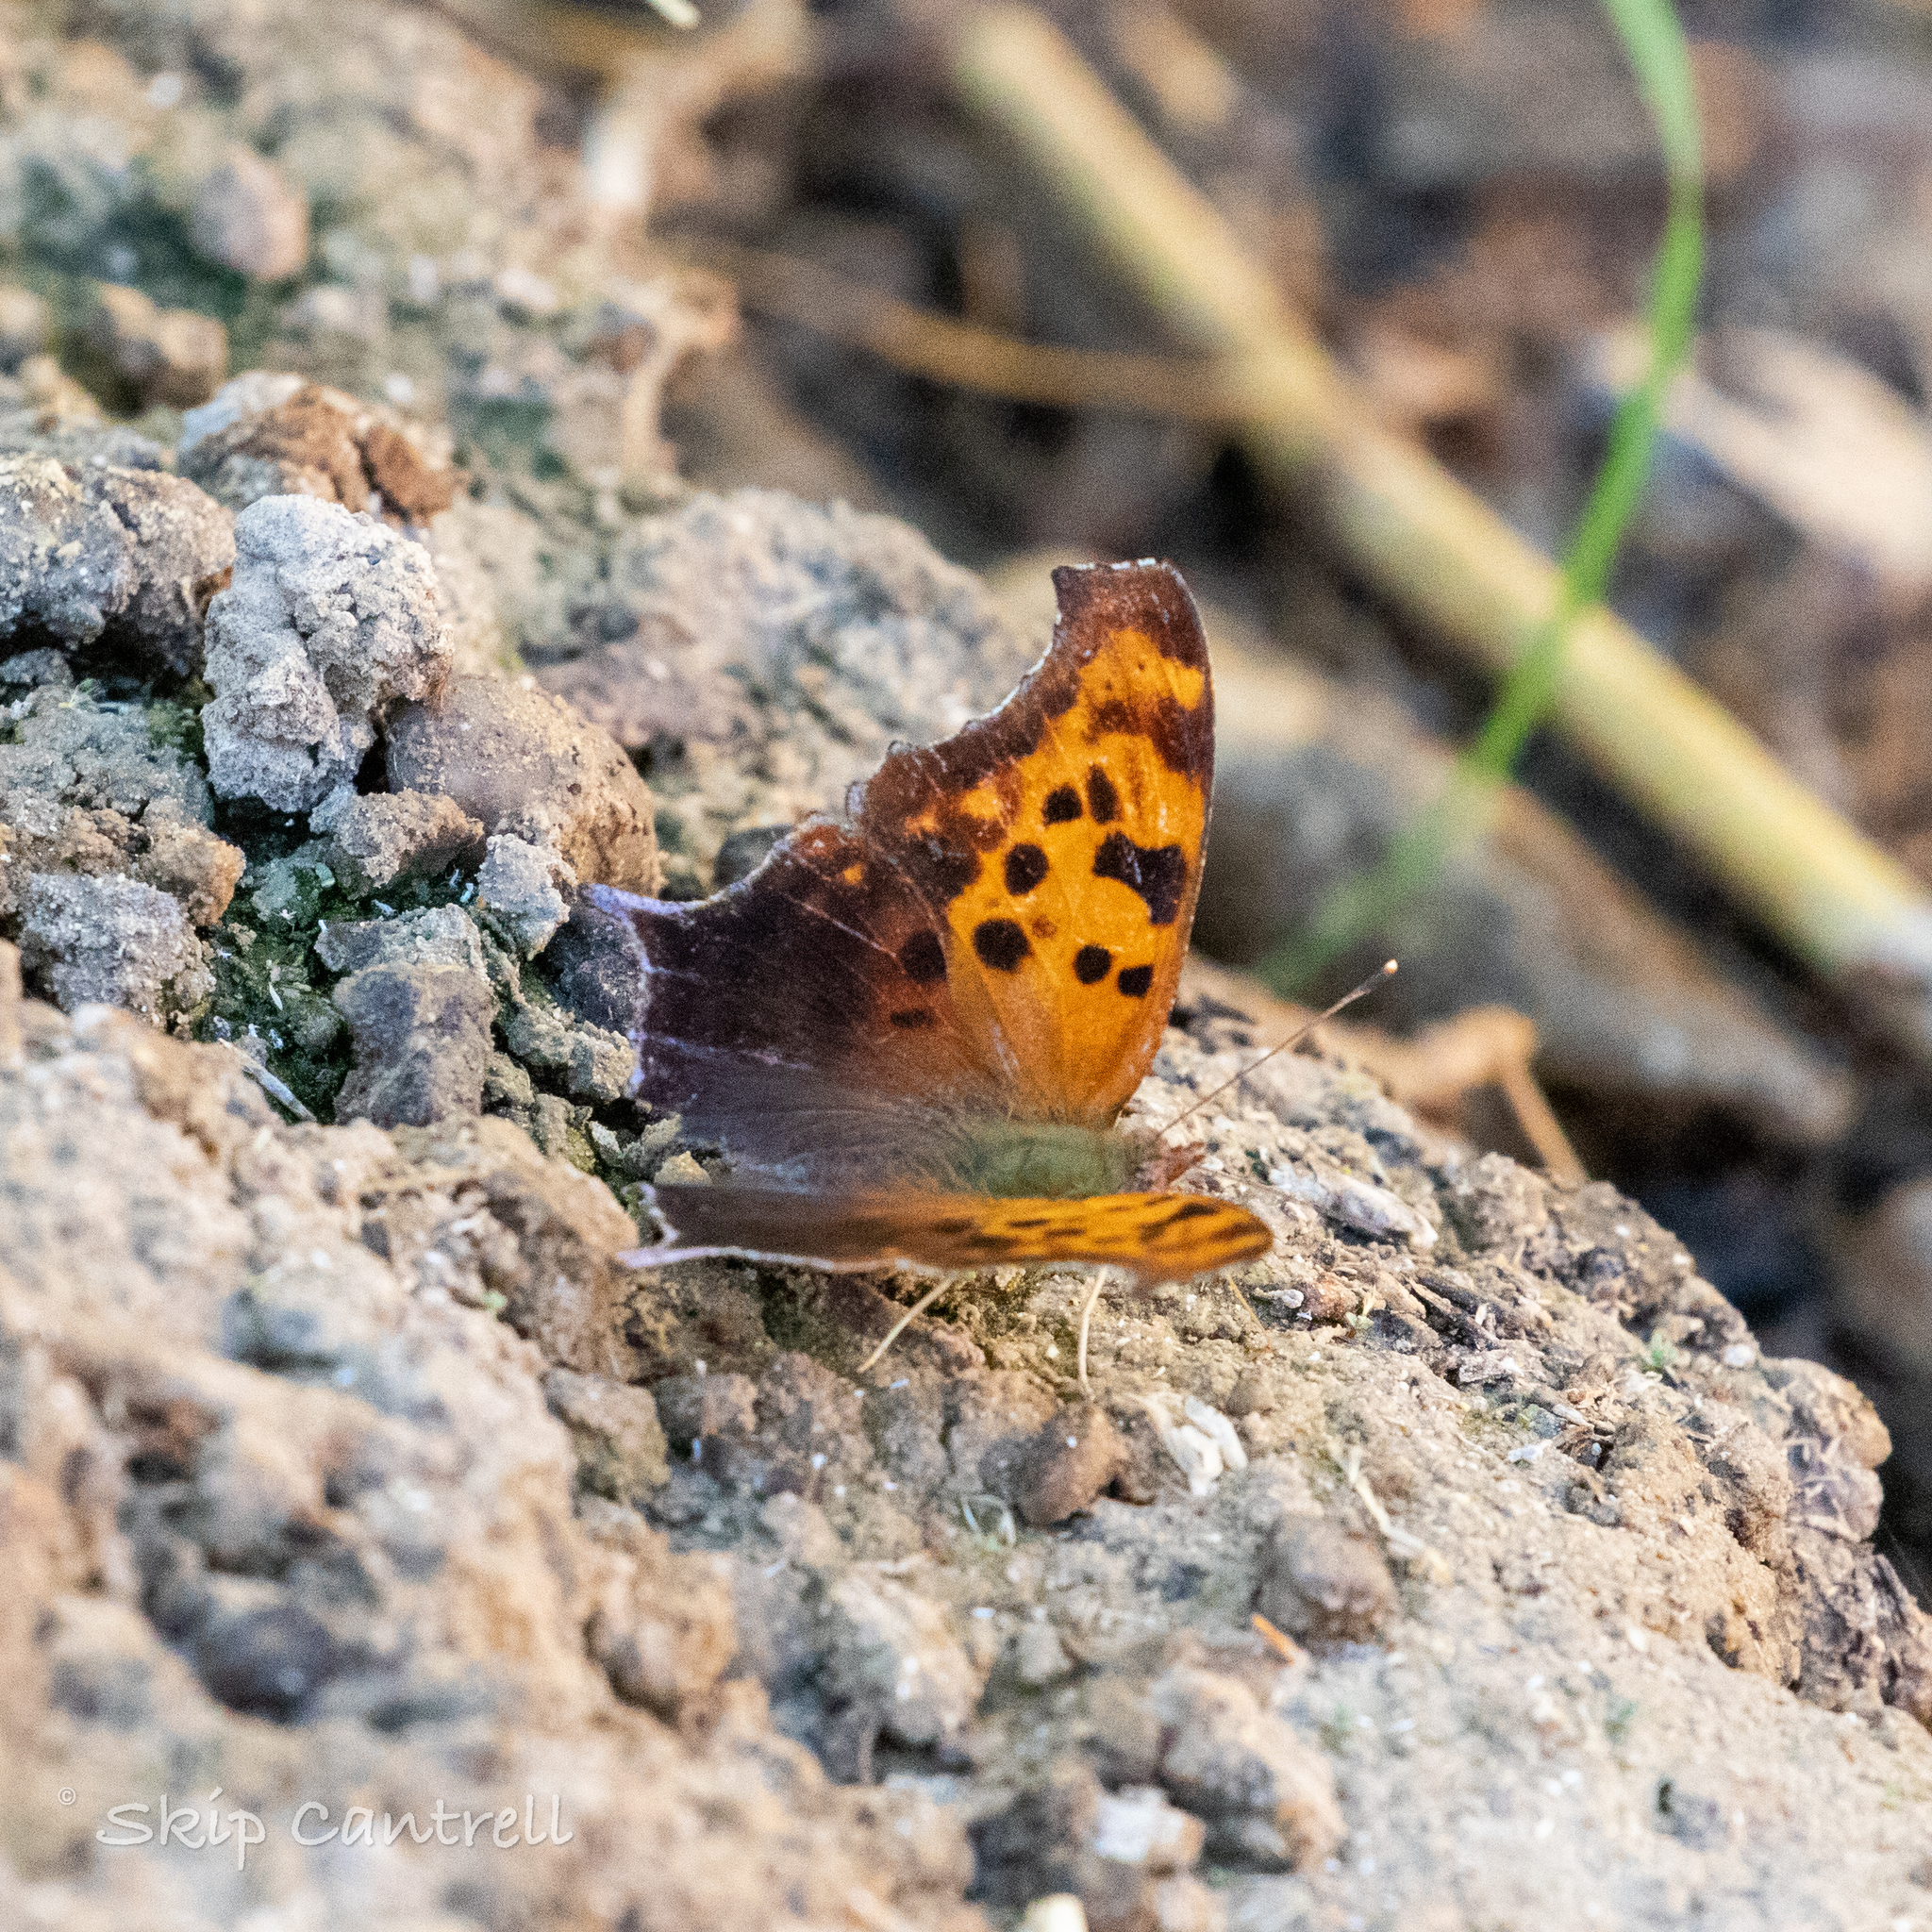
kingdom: Animalia
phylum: Arthropoda
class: Insecta
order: Lepidoptera
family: Nymphalidae
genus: Polygonia
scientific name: Polygonia interrogationis
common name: Question mark
